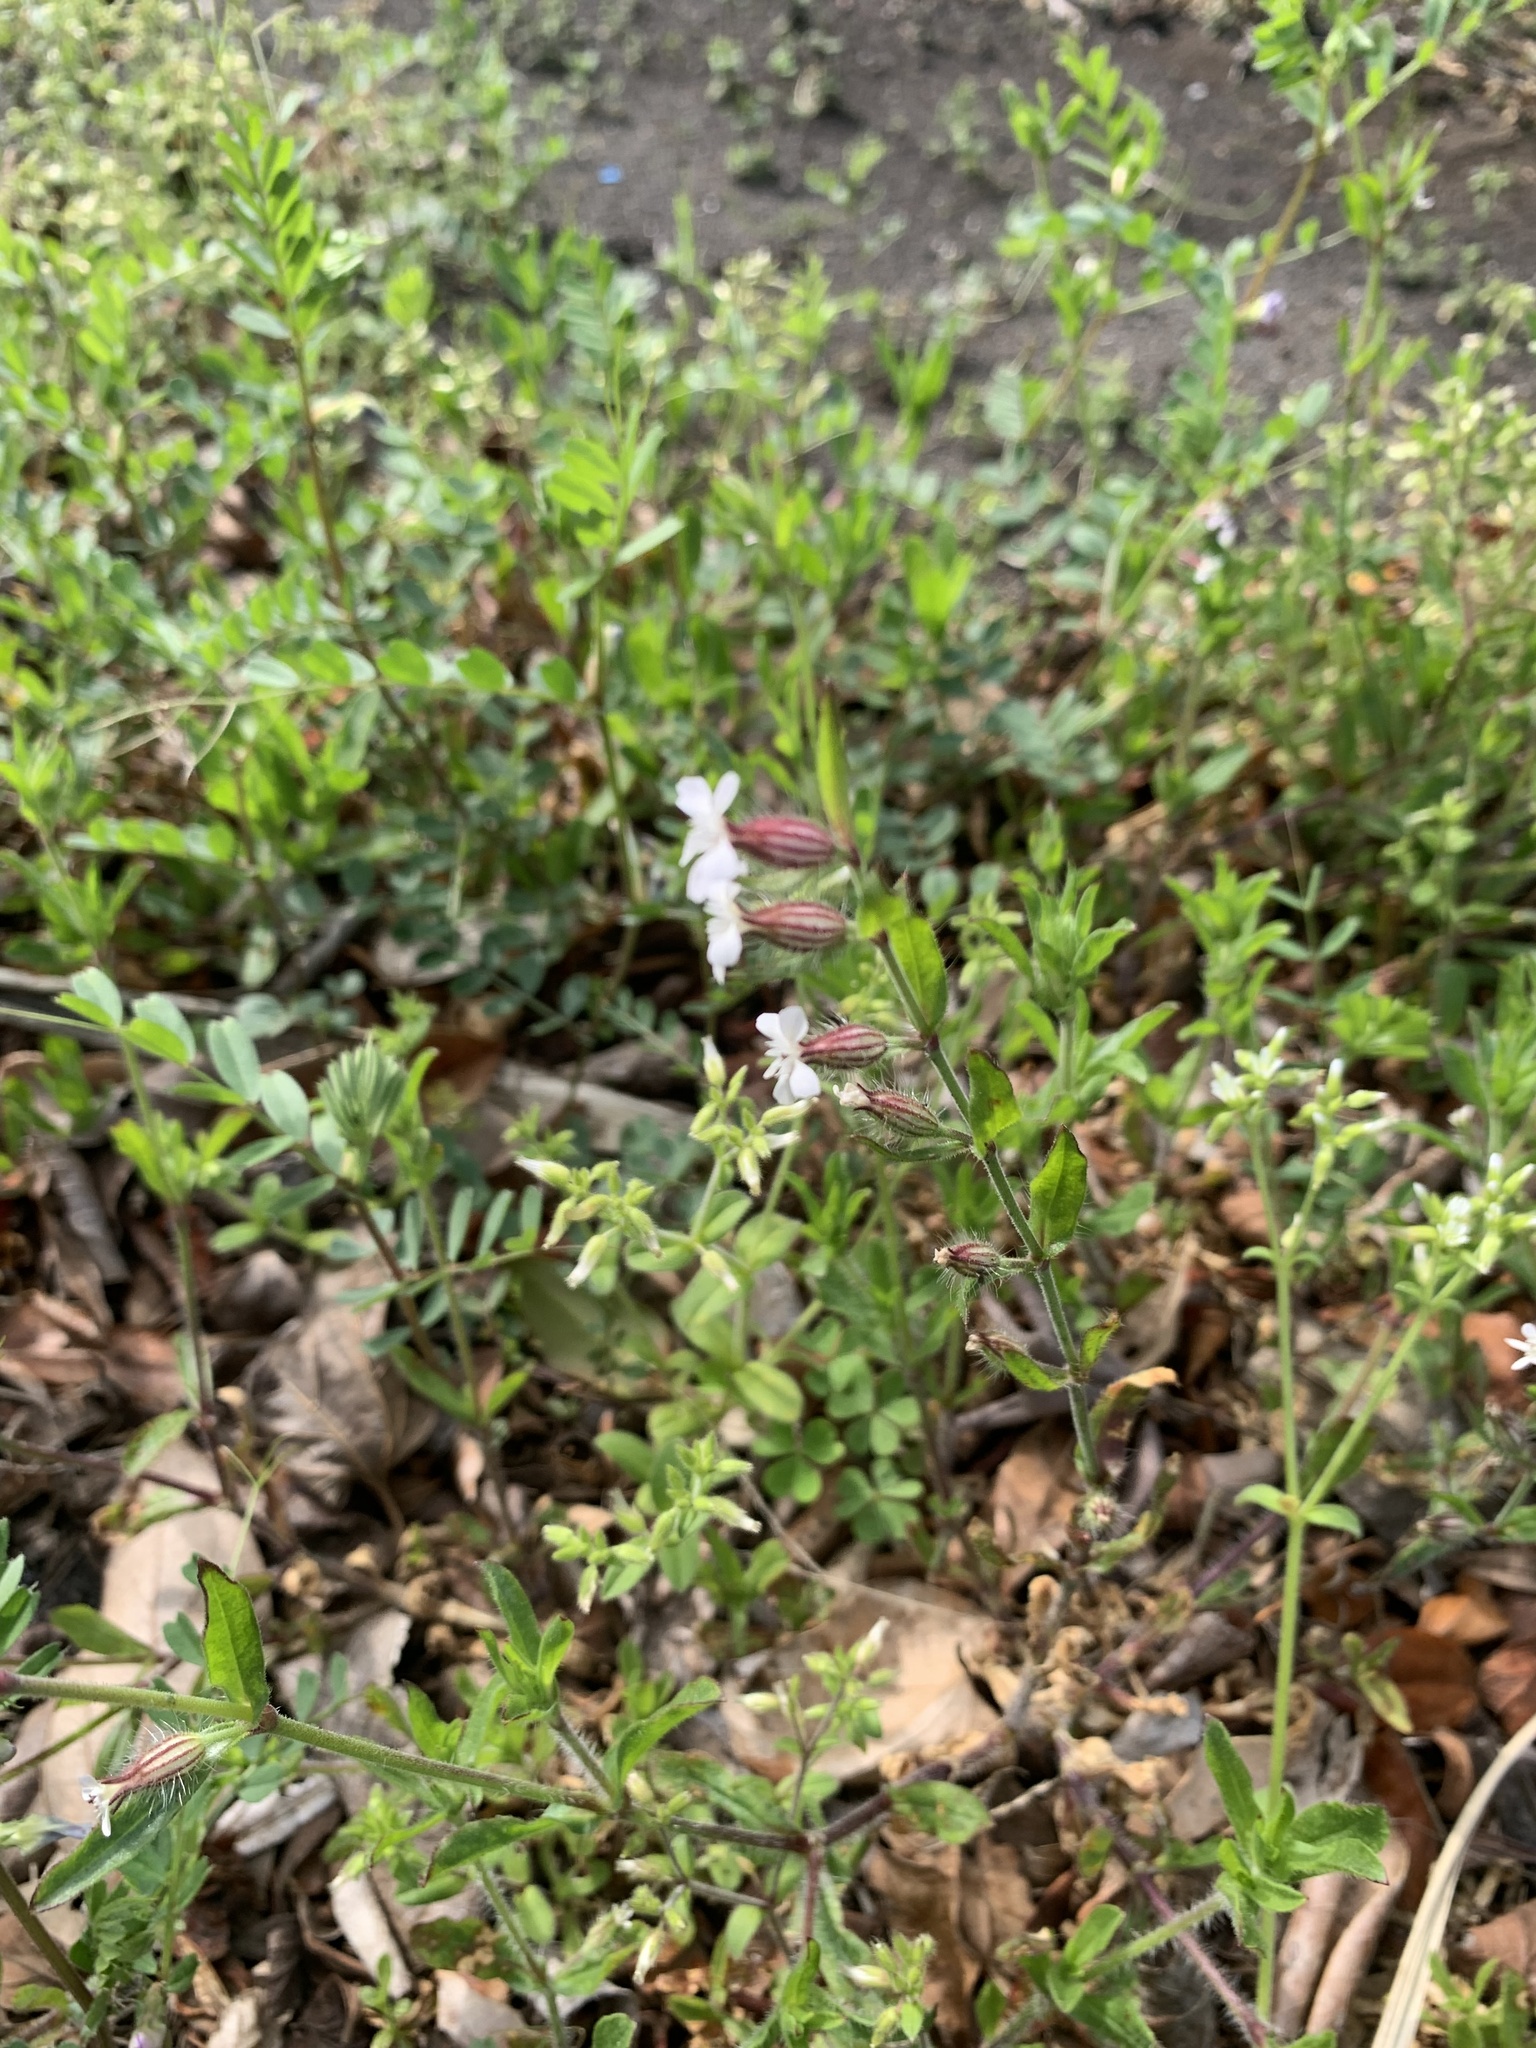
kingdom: Plantae
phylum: Tracheophyta
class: Magnoliopsida
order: Caryophyllales
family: Caryophyllaceae
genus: Silene
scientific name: Silene gallica
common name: Small-flowered catchfly
